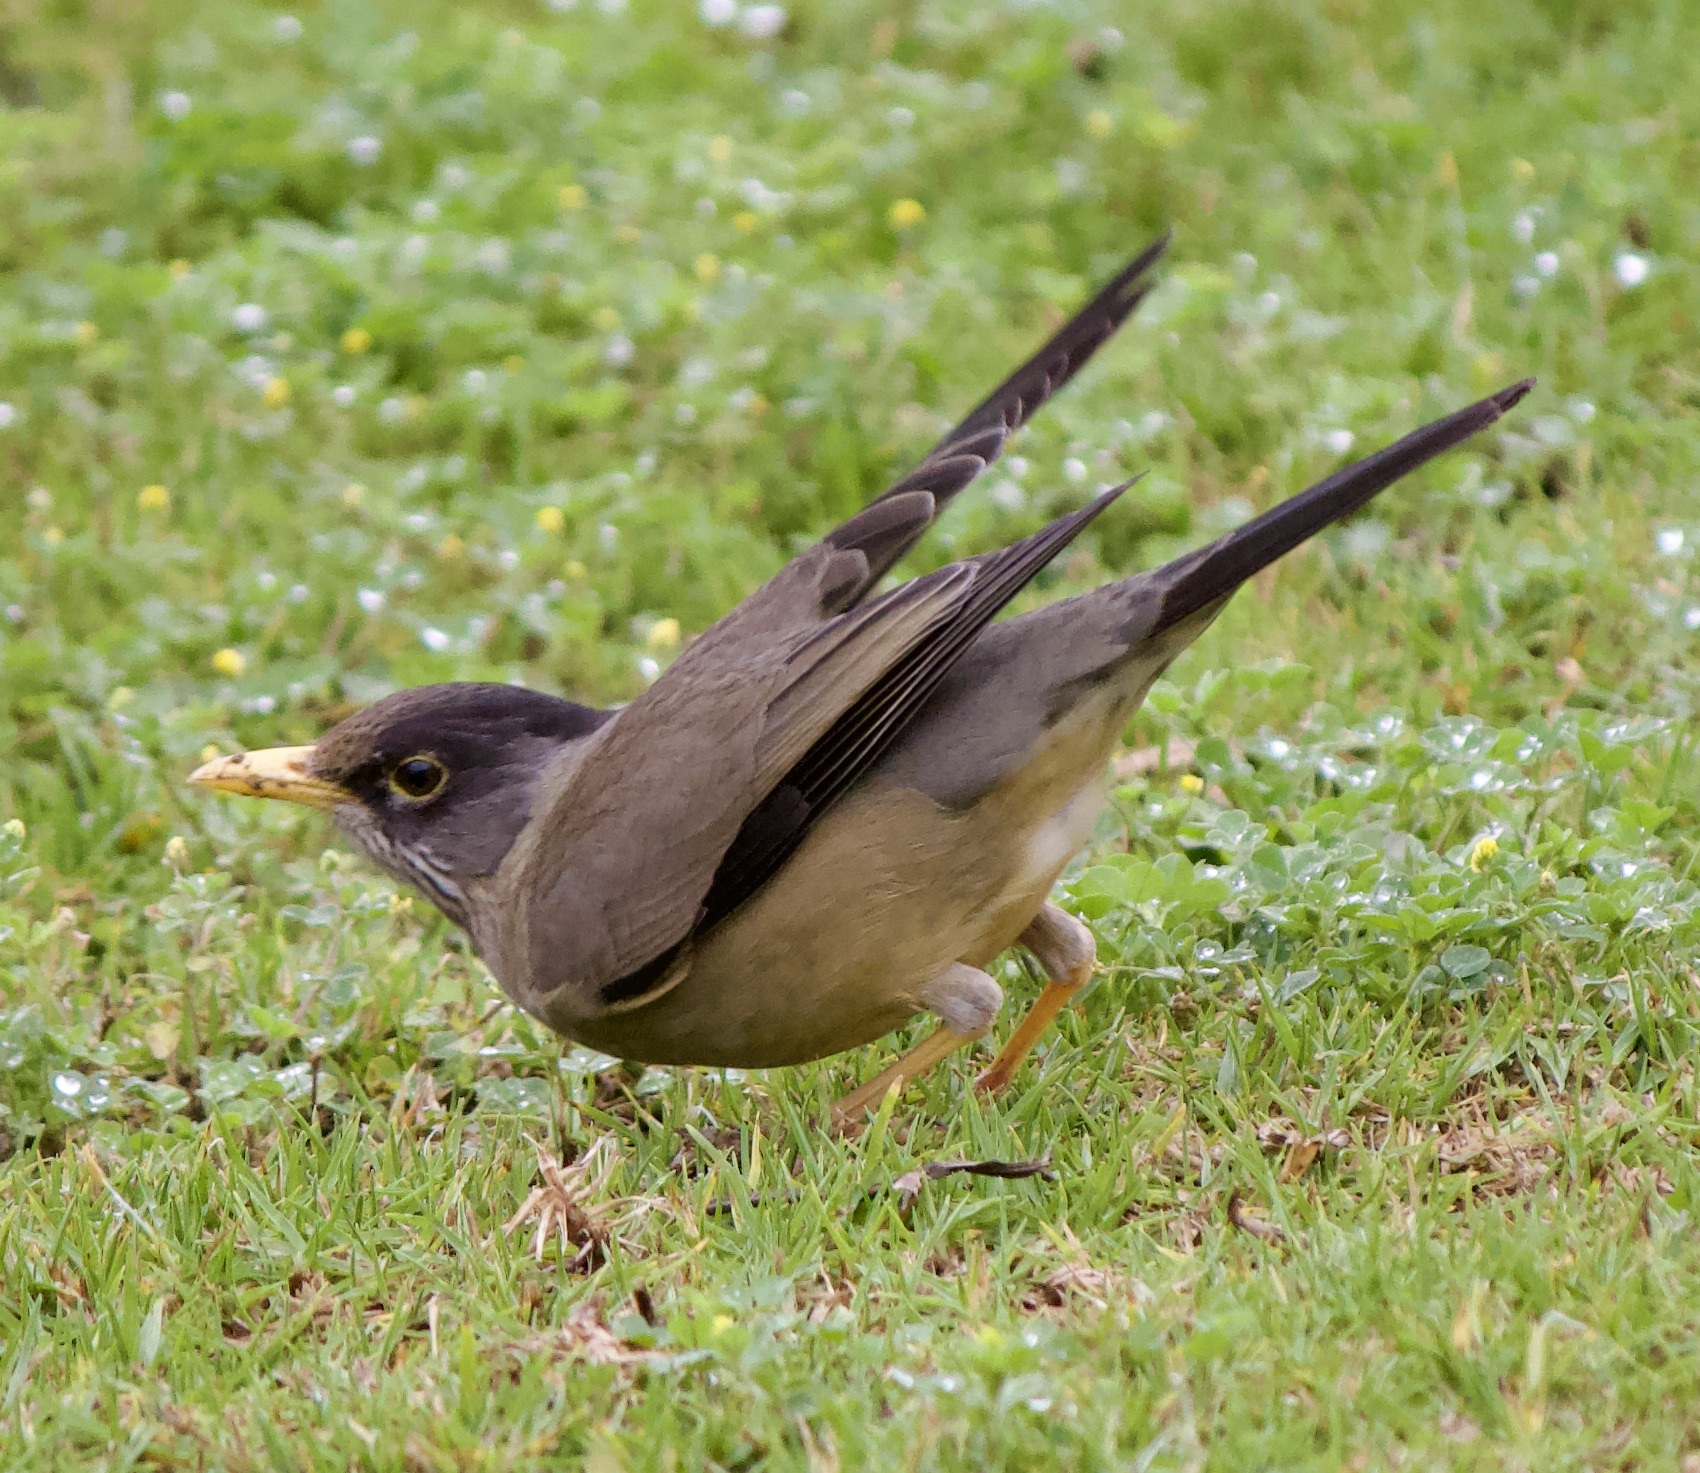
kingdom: Animalia
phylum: Chordata
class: Aves
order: Passeriformes
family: Turdidae
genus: Turdus
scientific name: Turdus falcklandii
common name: Austral thrush
